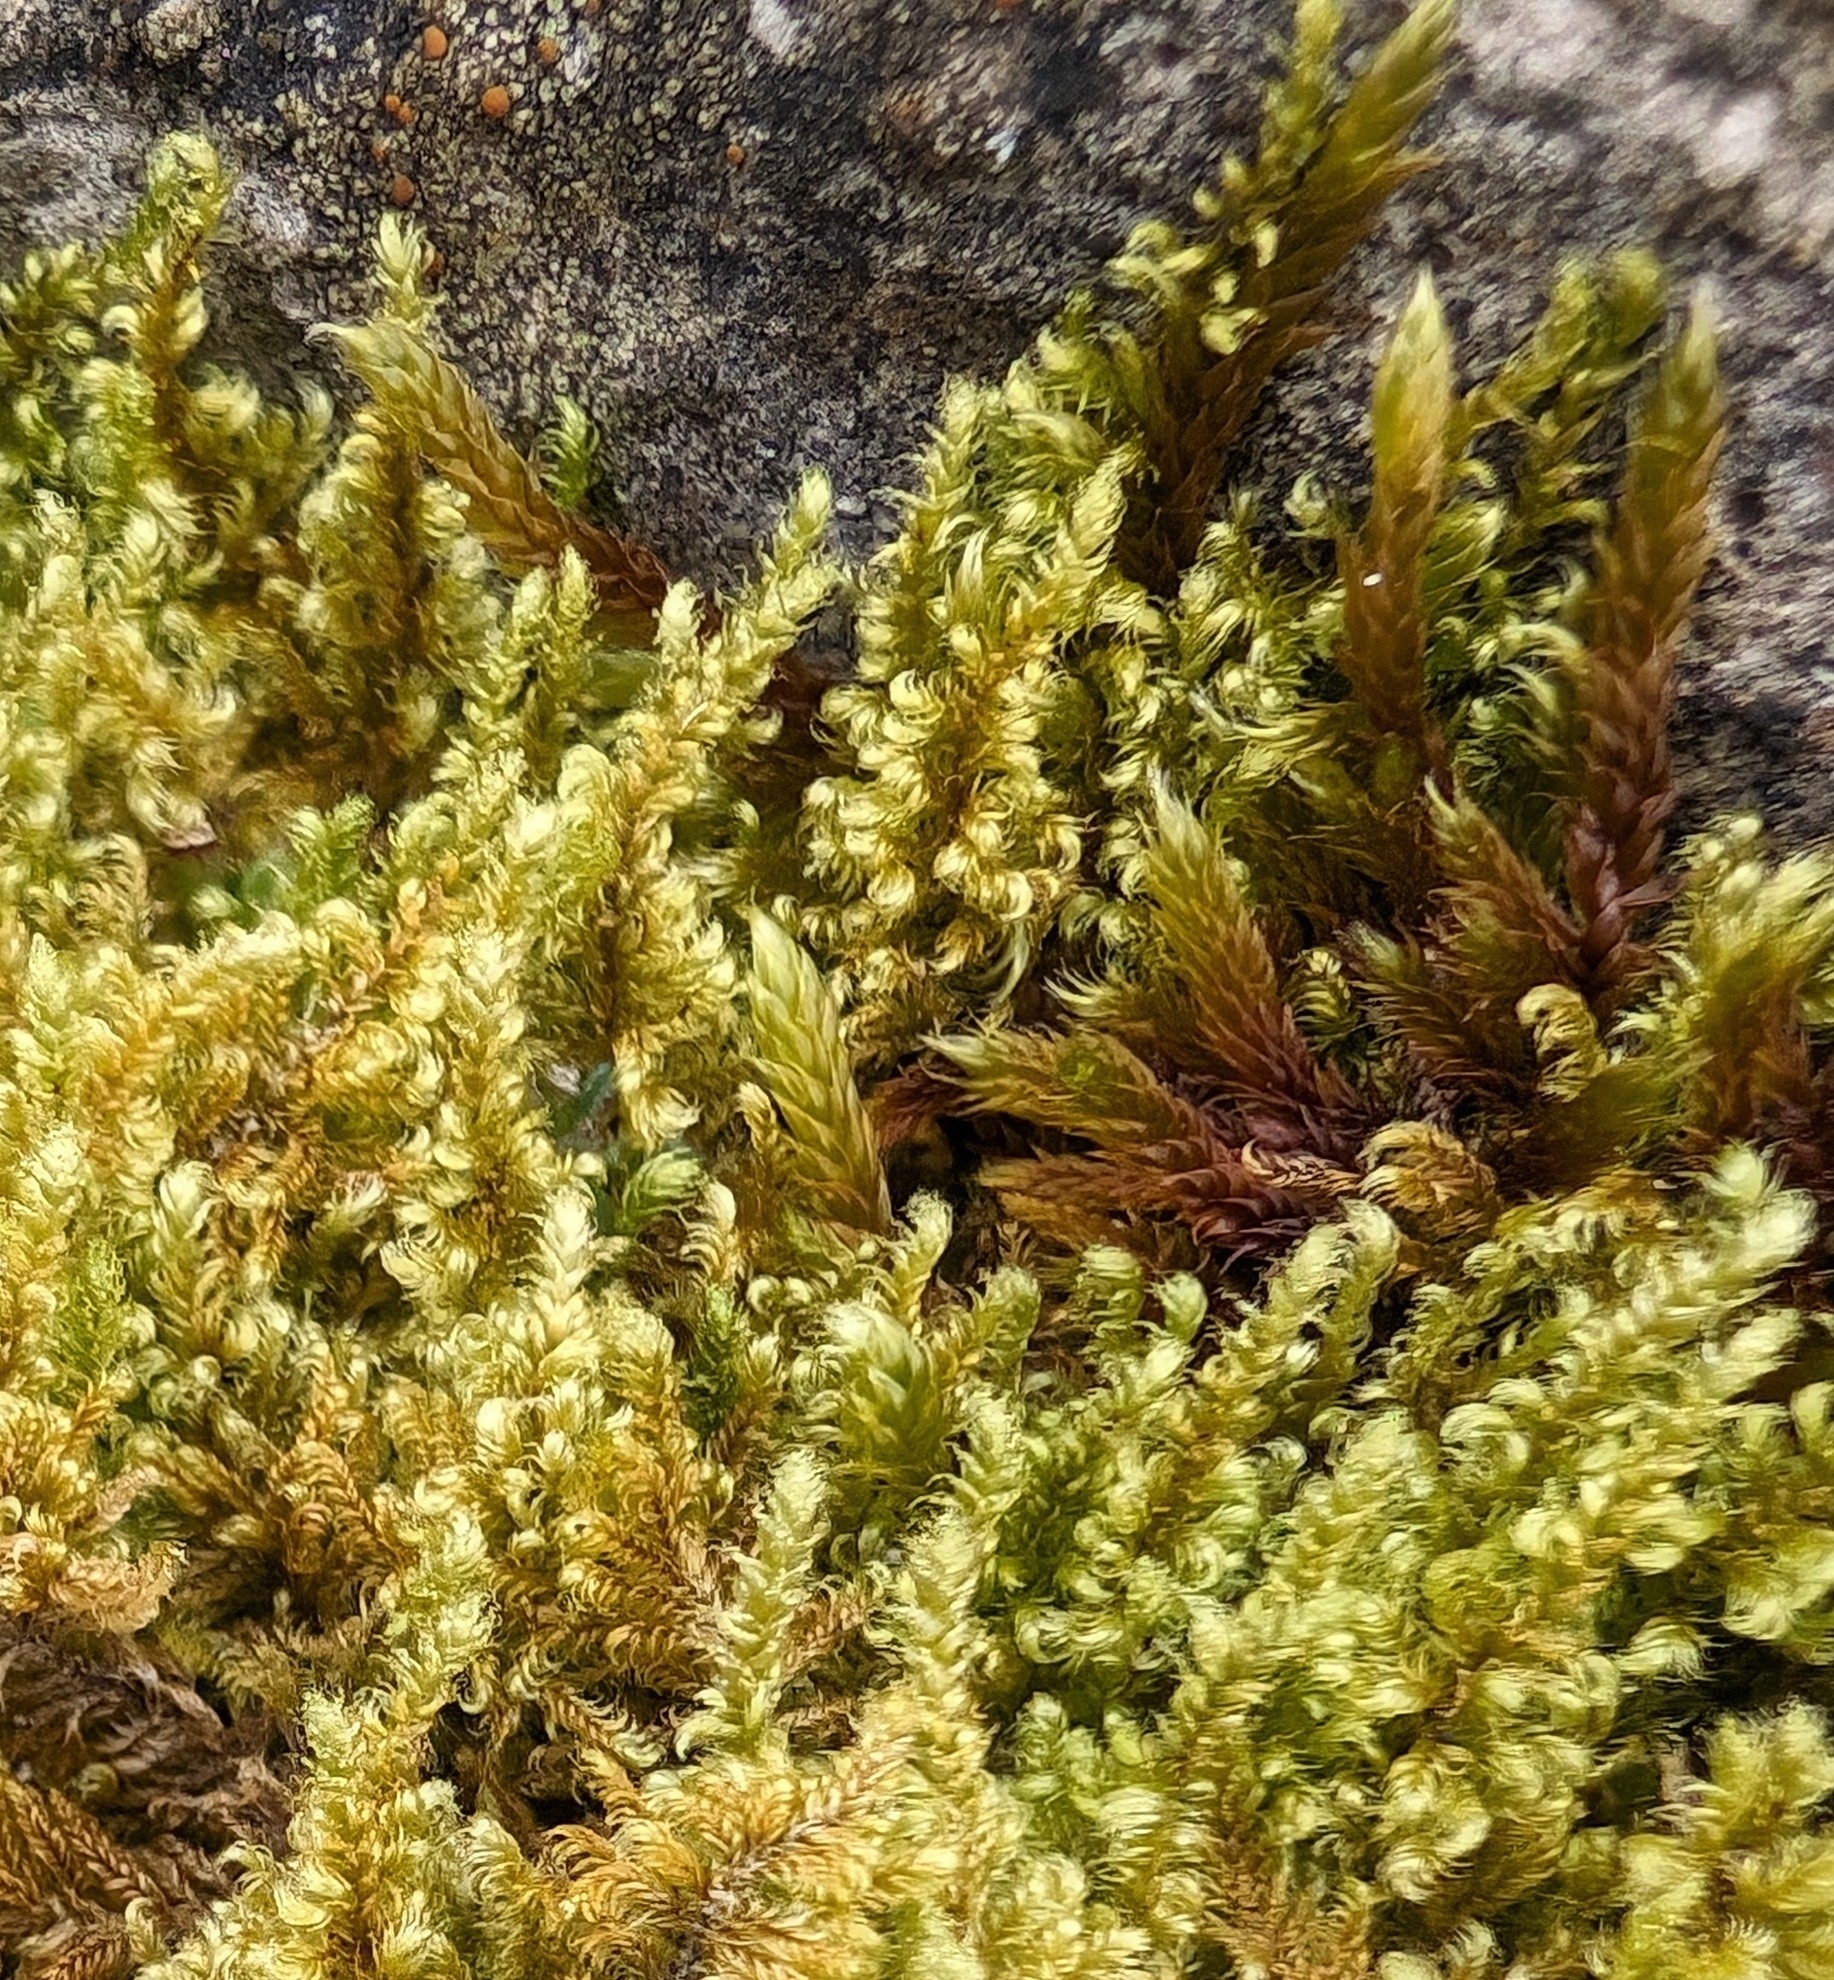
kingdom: Plantae
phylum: Bryophyta
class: Bryopsida
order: Hypnales
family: Myuriaceae
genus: Ctenidium
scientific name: Ctenidium molluscum
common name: Chalk comb-moss
